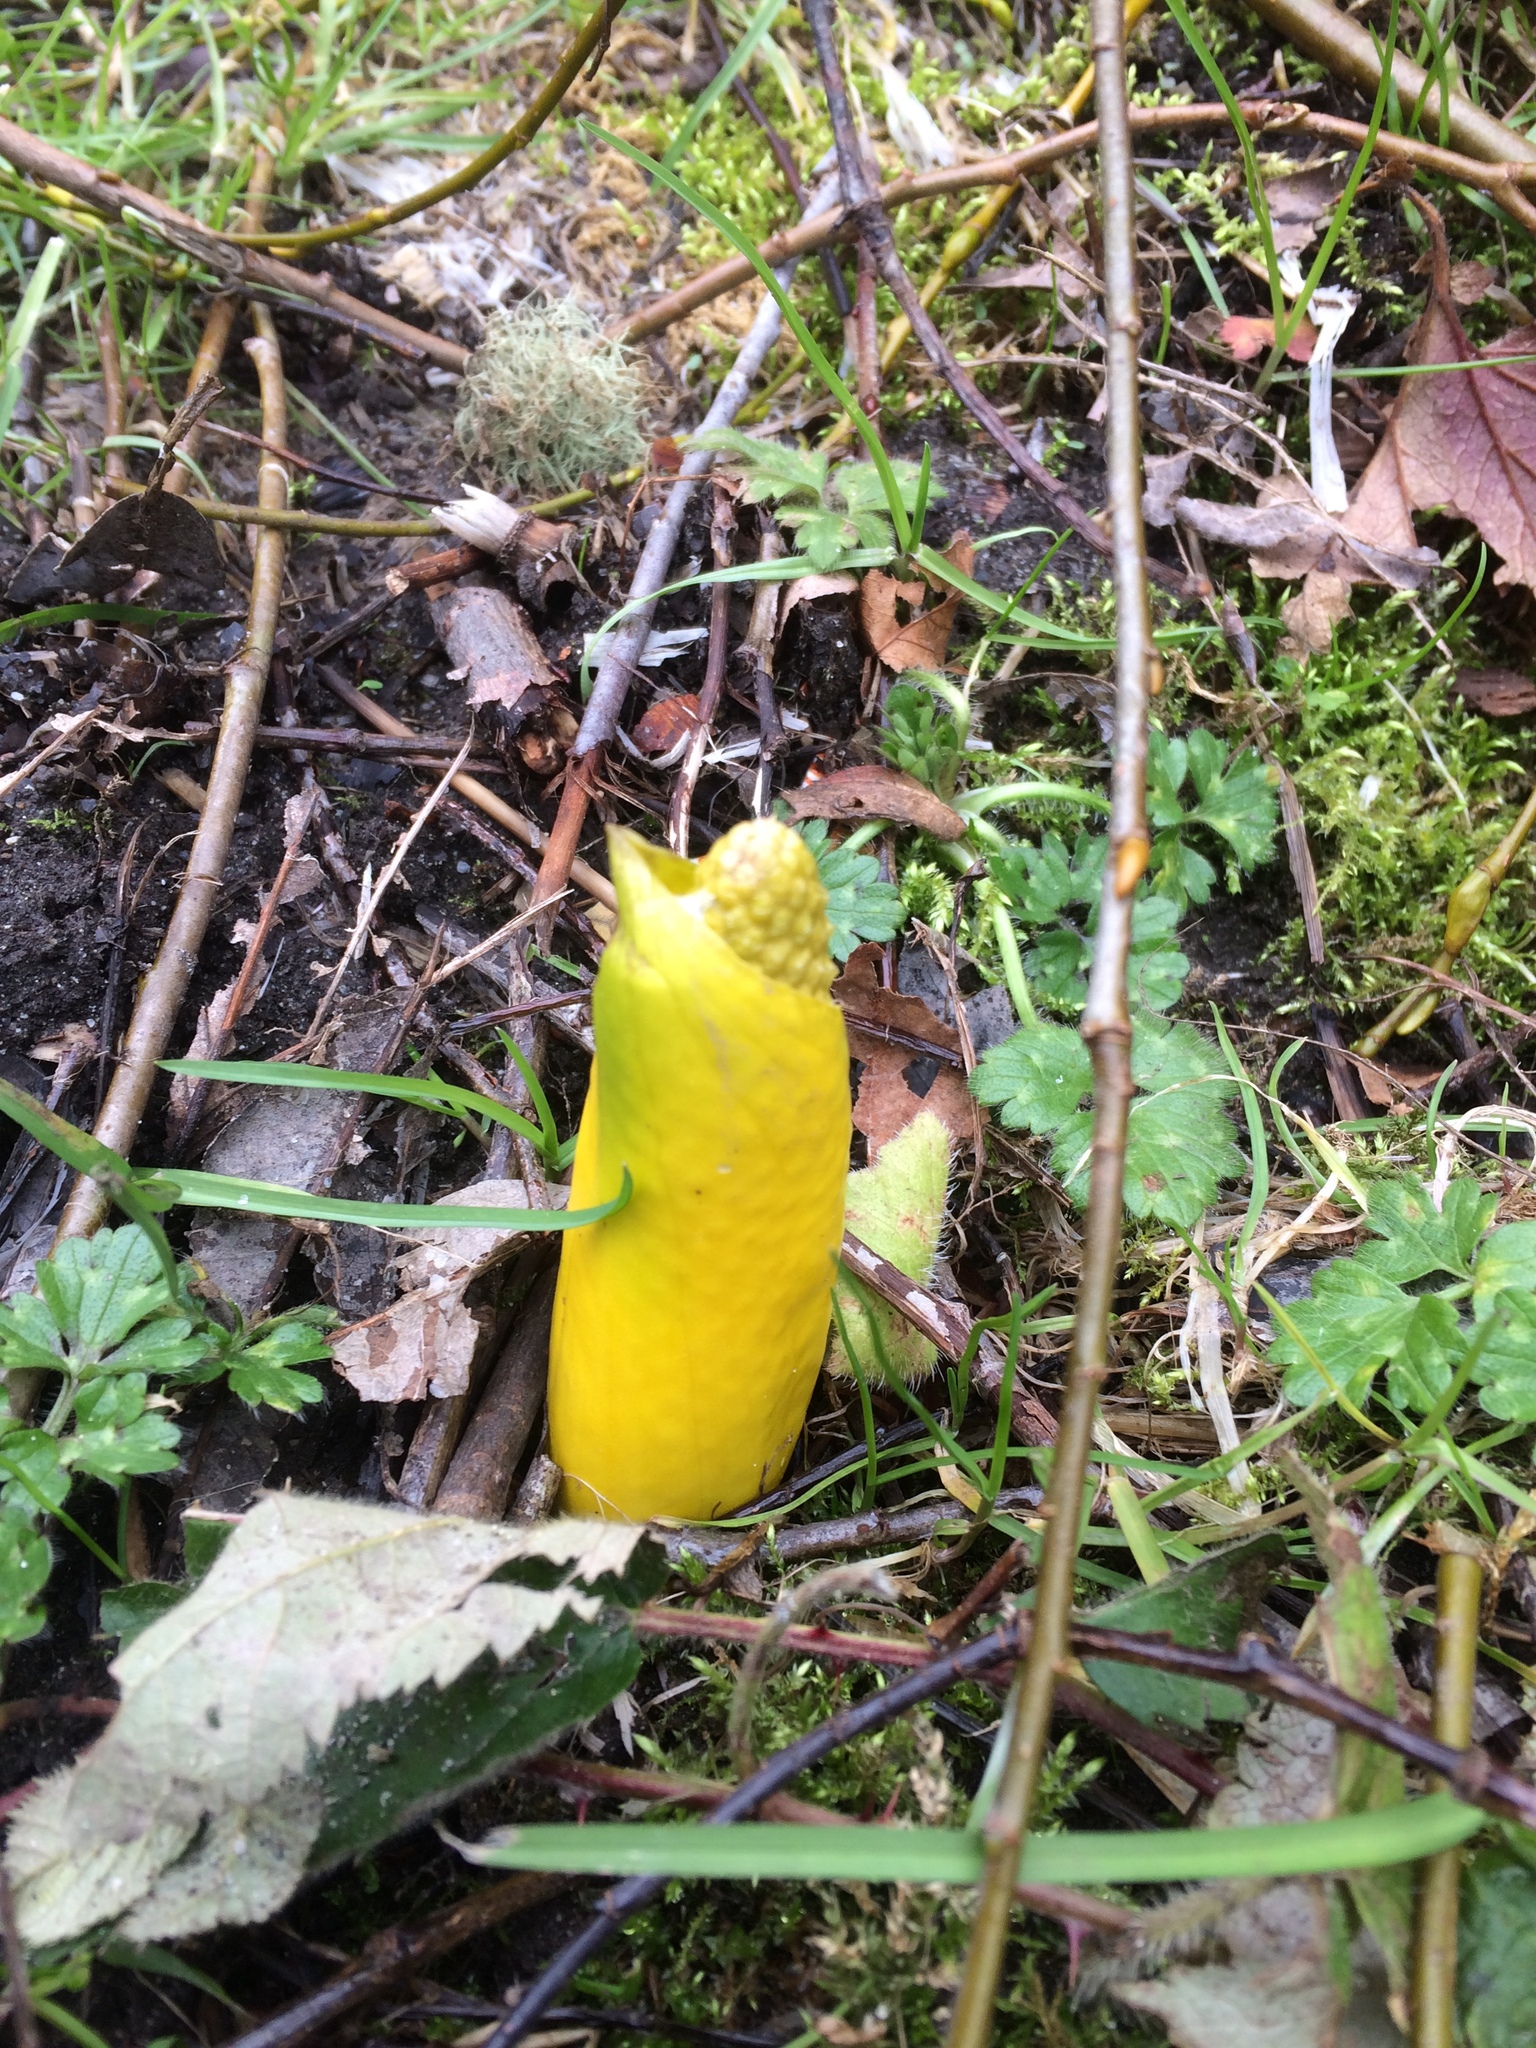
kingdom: Plantae
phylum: Tracheophyta
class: Liliopsida
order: Alismatales
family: Araceae
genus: Lysichiton
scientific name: Lysichiton americanus
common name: American skunk cabbage
